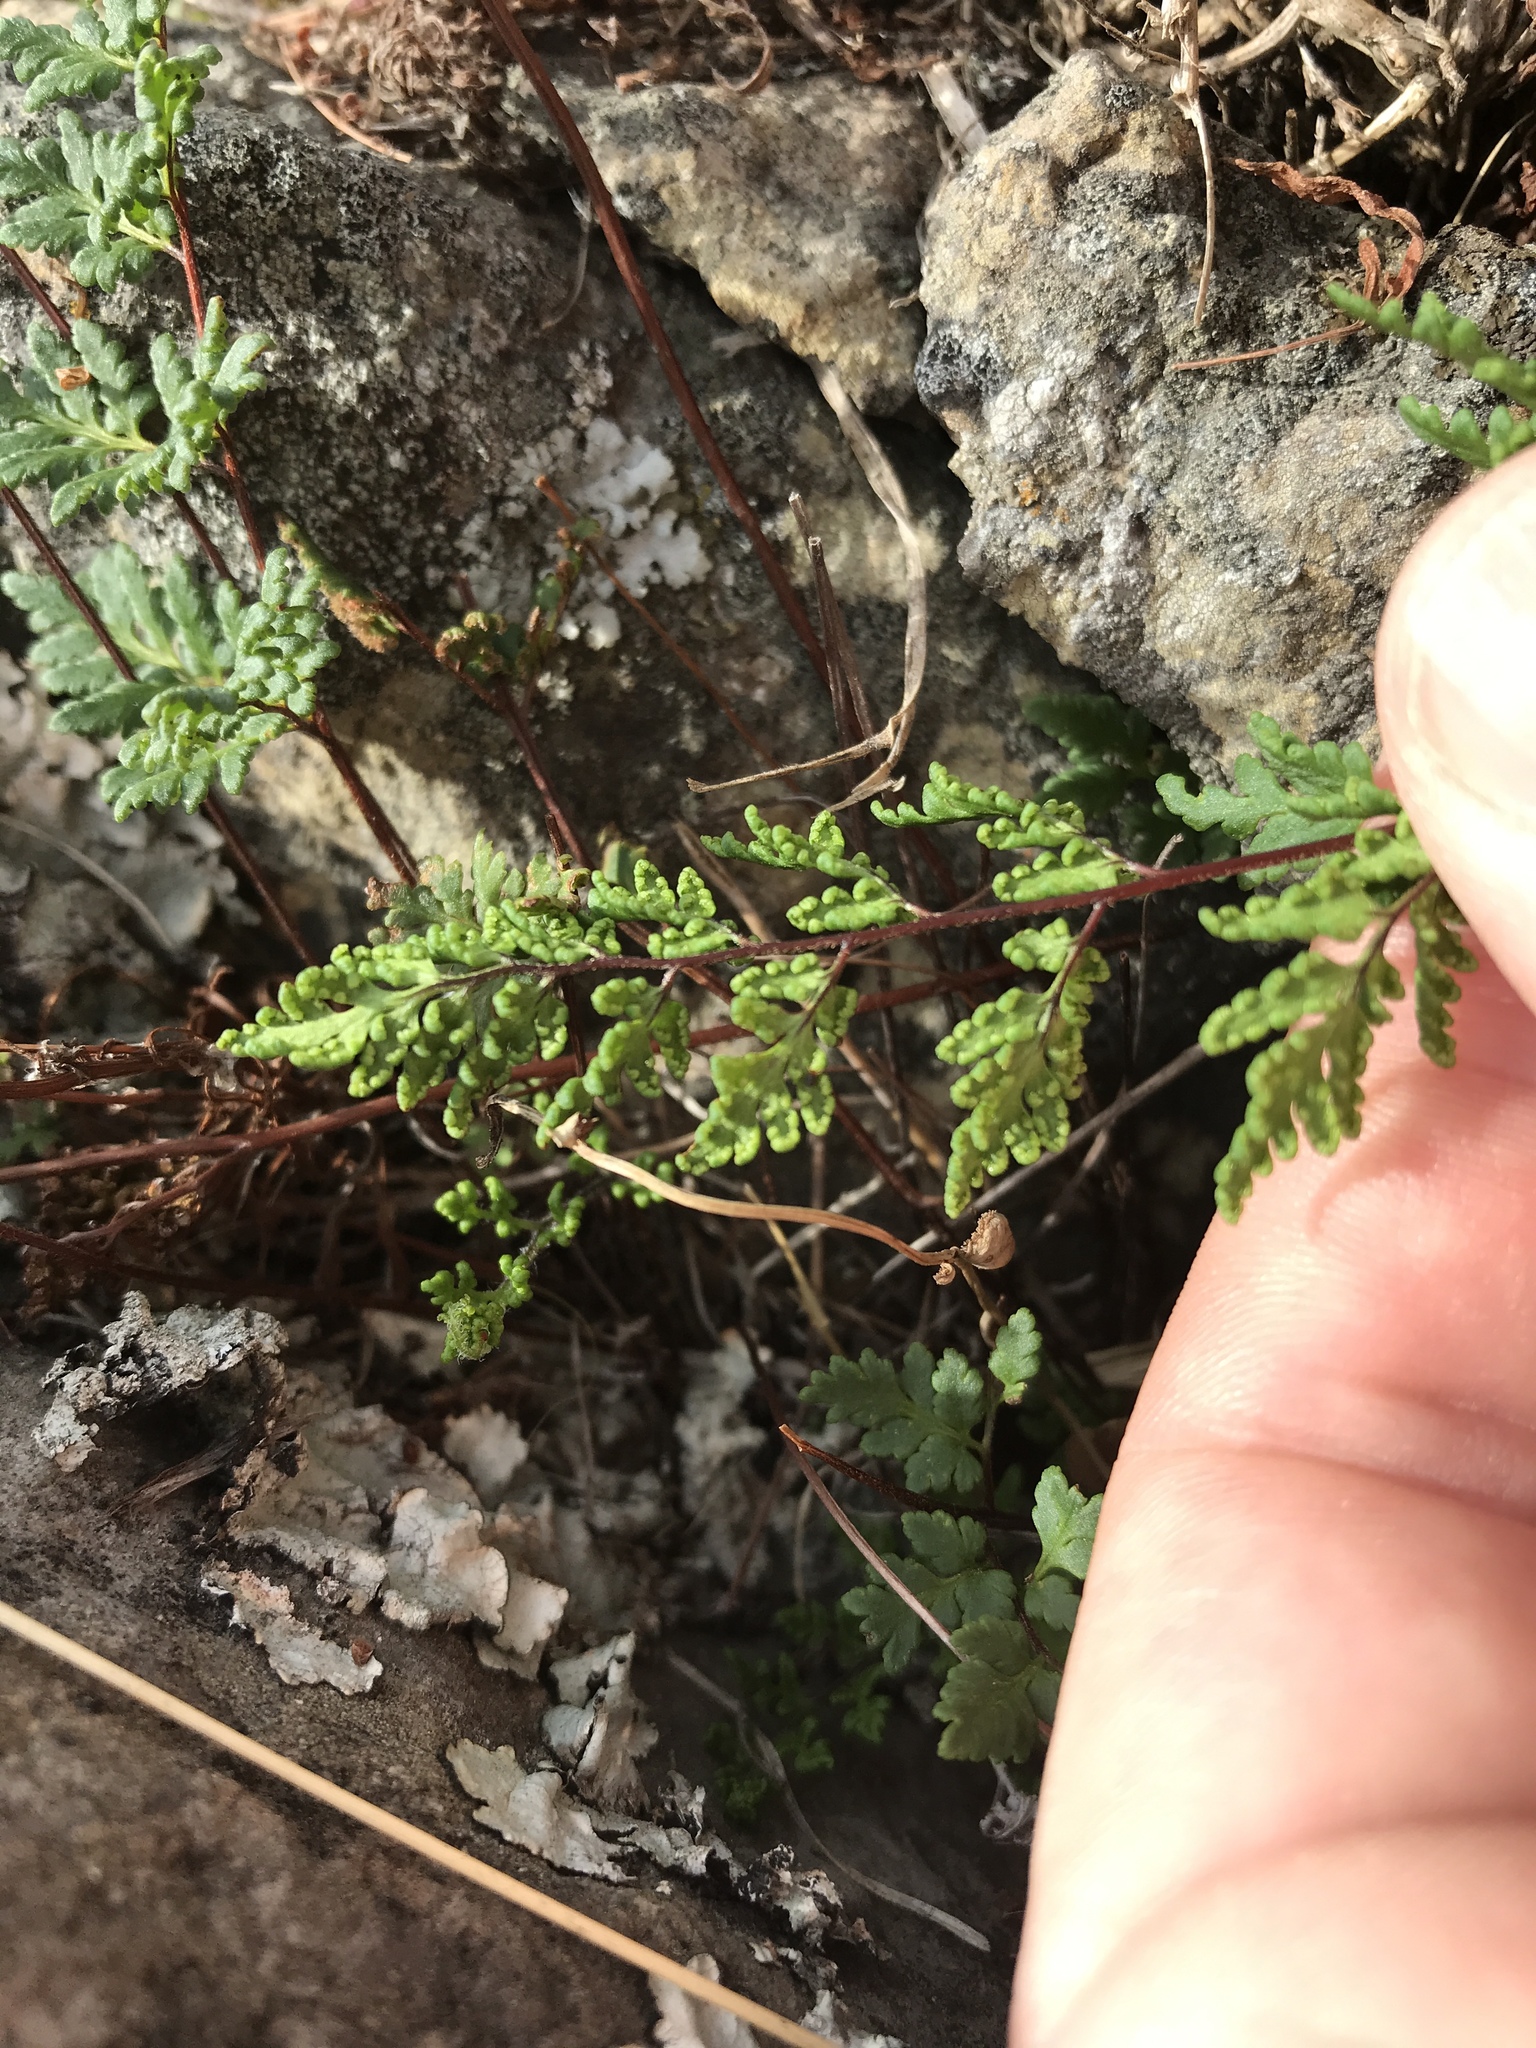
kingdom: Plantae
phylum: Tracheophyta
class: Polypodiopsida
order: Polypodiales
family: Pteridaceae
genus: Cheilanthes
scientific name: Cheilanthes sieberi
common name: Mulga fern
